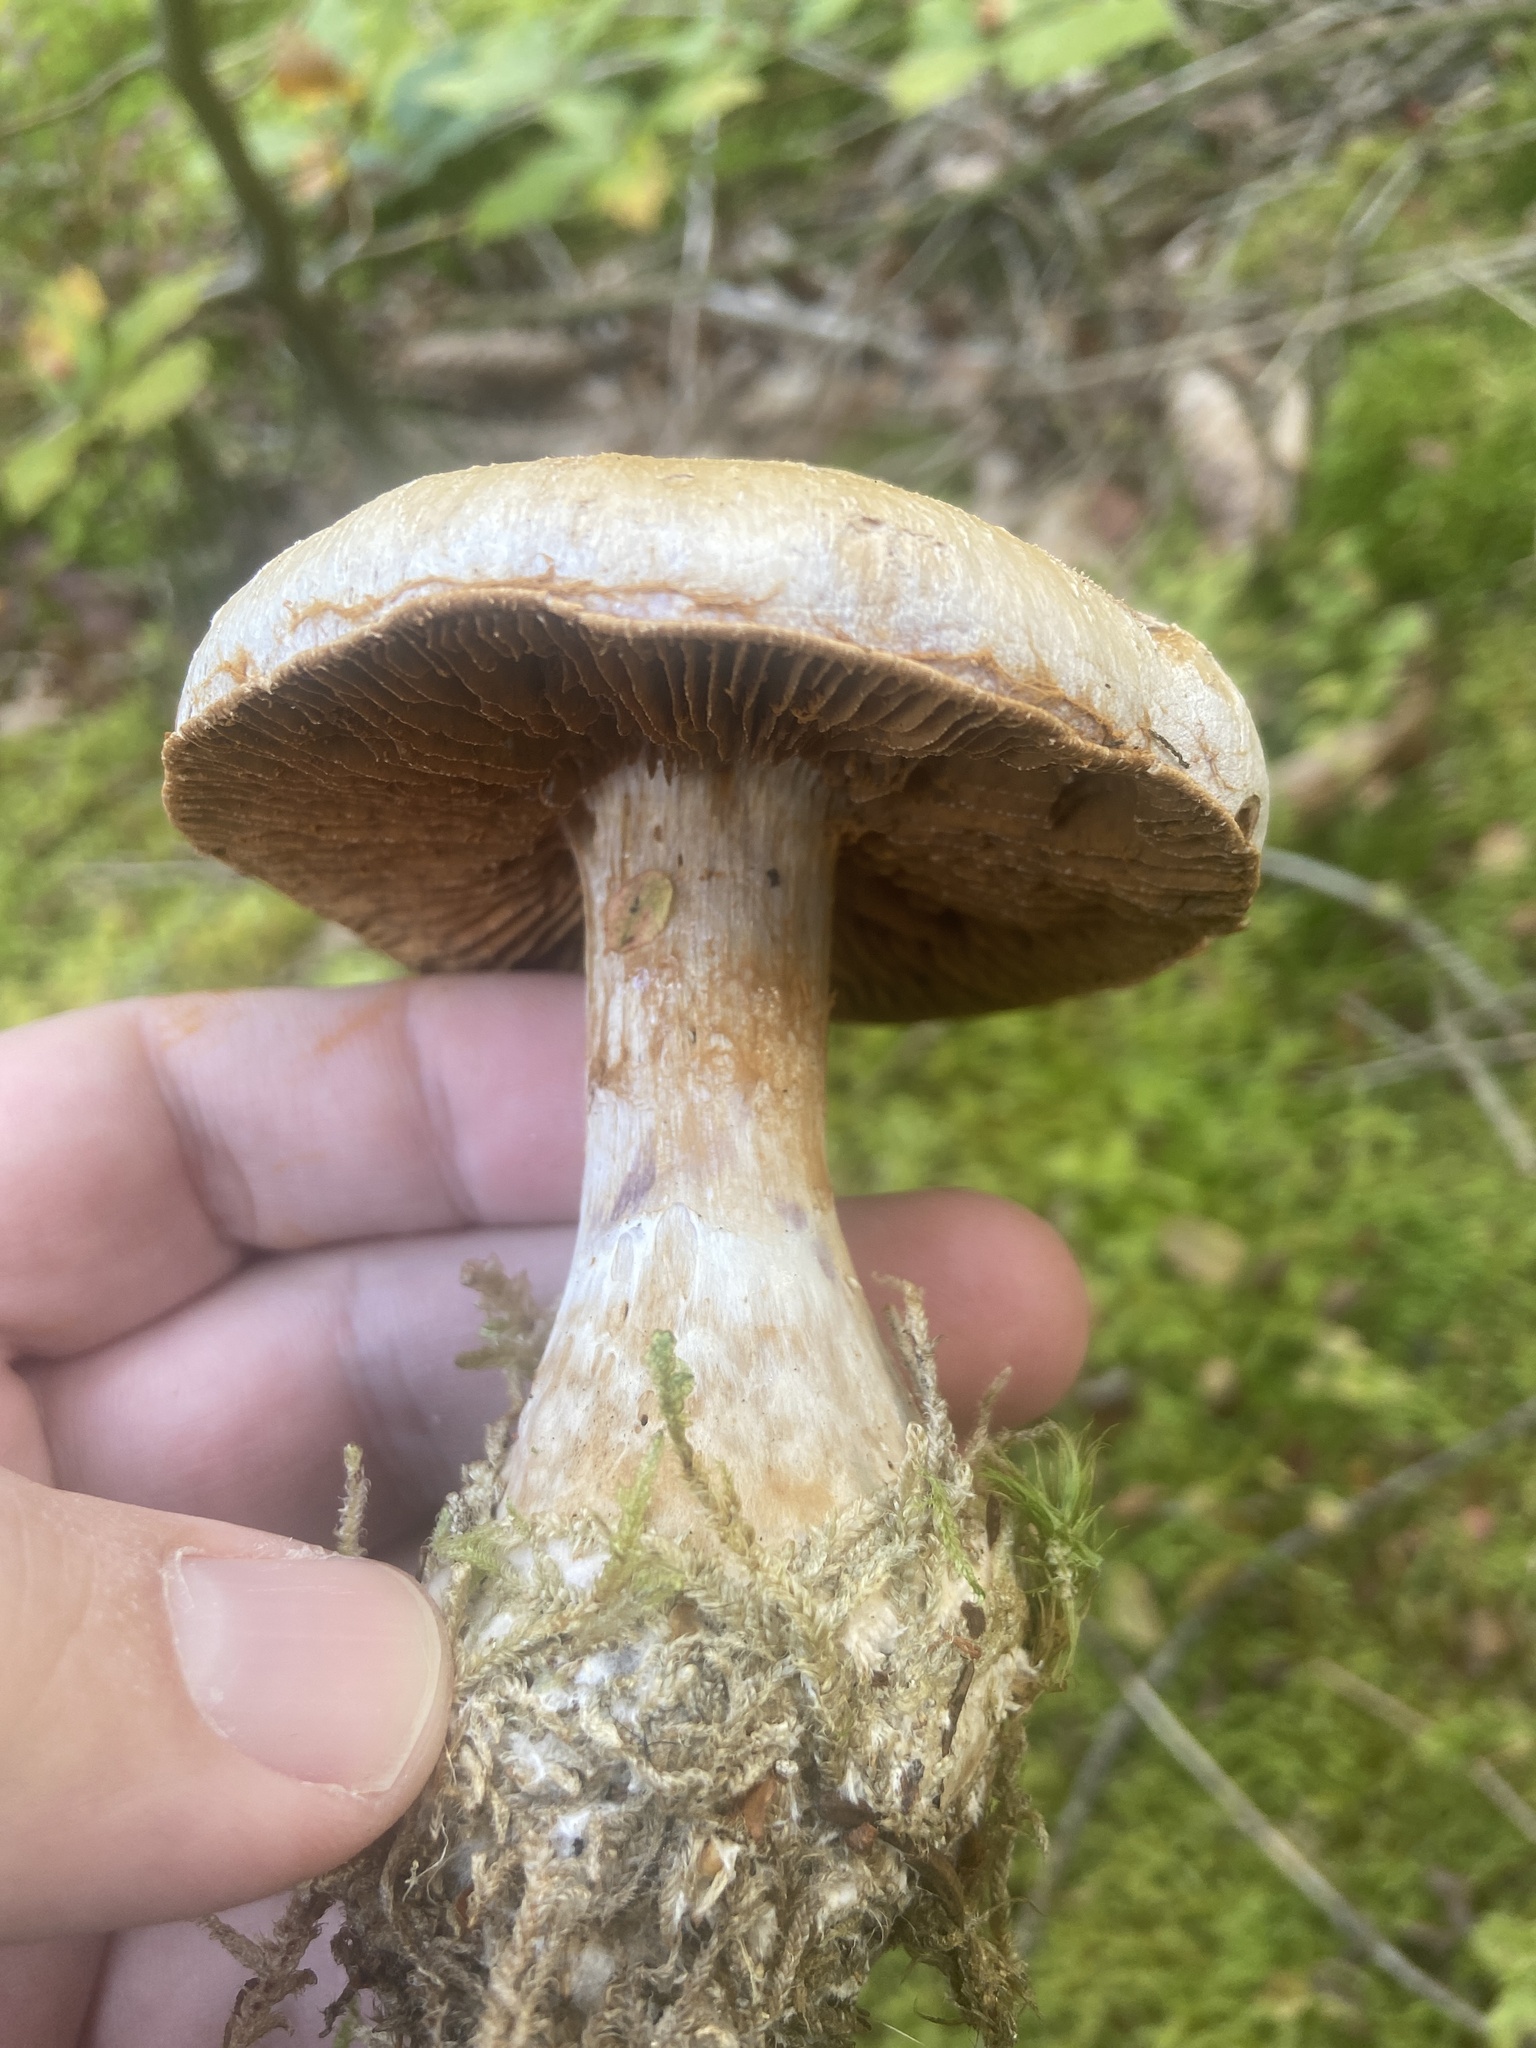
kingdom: Fungi
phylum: Basidiomycota
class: Agaricomycetes
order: Agaricales
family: Cortinariaceae
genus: Cortinarius
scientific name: Cortinarius traganus
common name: Gassy webcap
